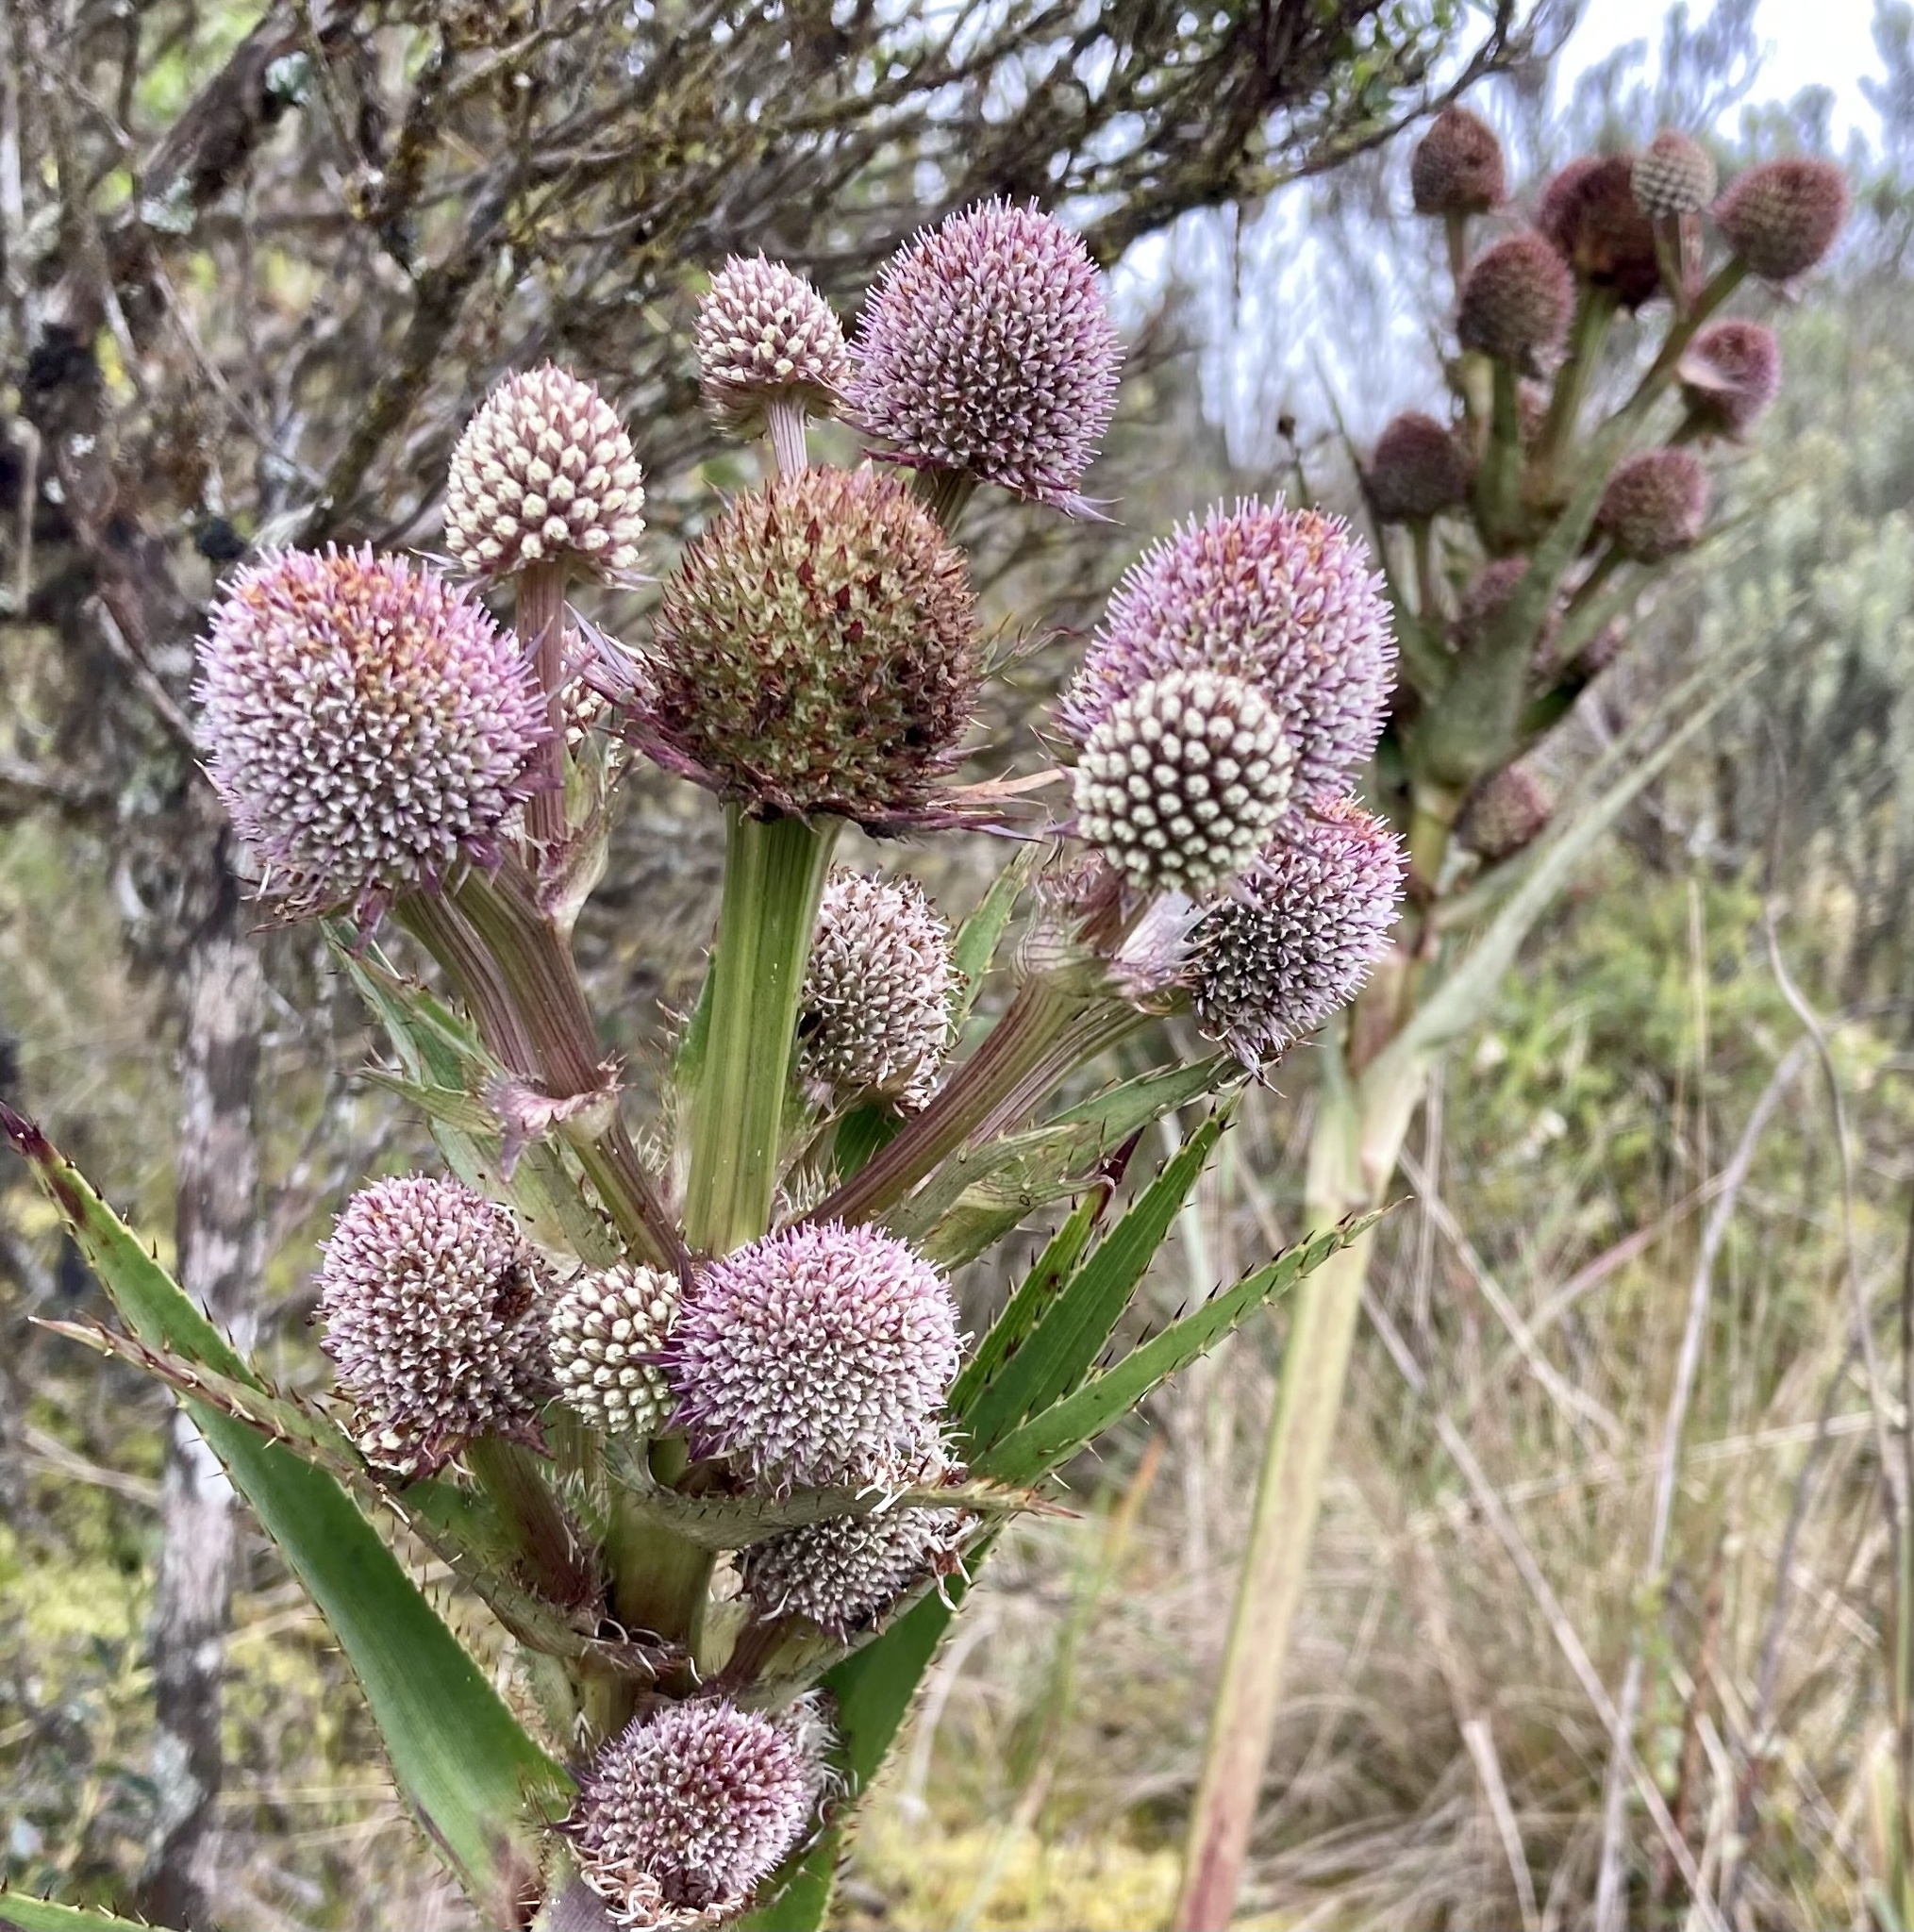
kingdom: Plantae
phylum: Tracheophyta
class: Magnoliopsida
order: Apiales
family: Apiaceae
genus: Eryngium
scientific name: Eryngium humboldtii
